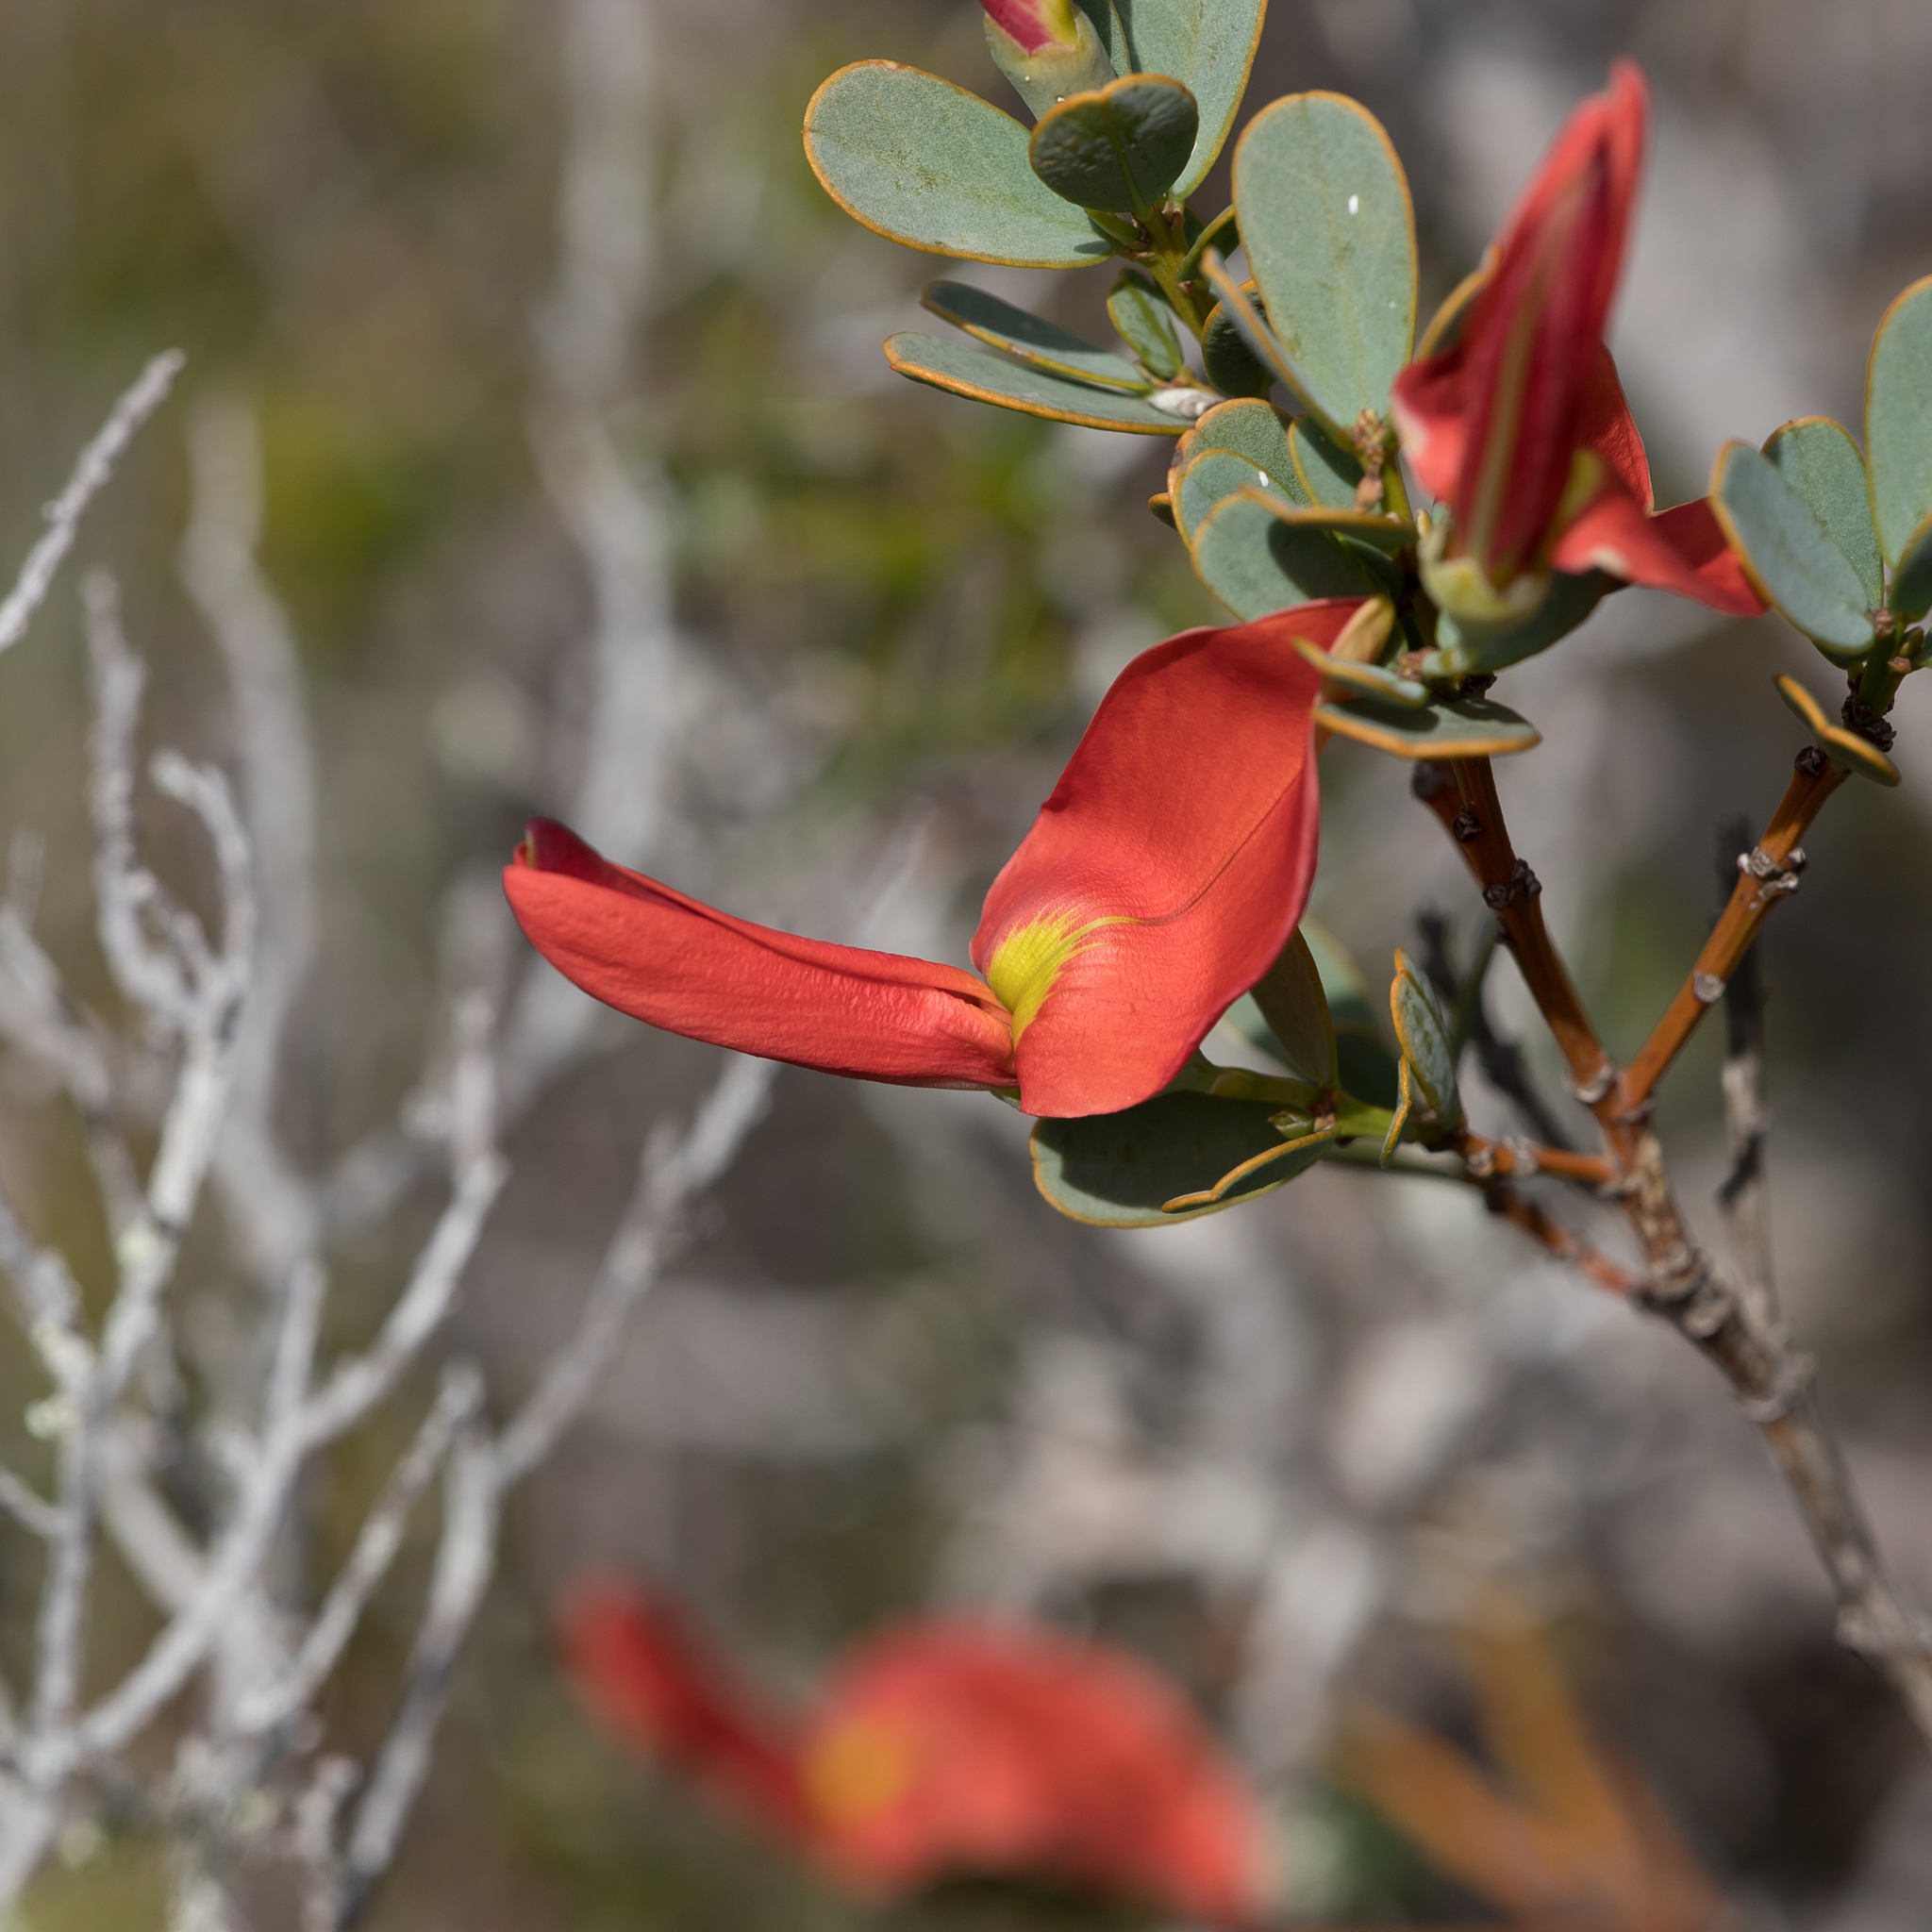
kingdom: Plantae
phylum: Tracheophyta
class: Magnoliopsida
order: Fabales
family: Fabaceae
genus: Templetonia
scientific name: Templetonia retusa
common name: Cockies'-tongue
